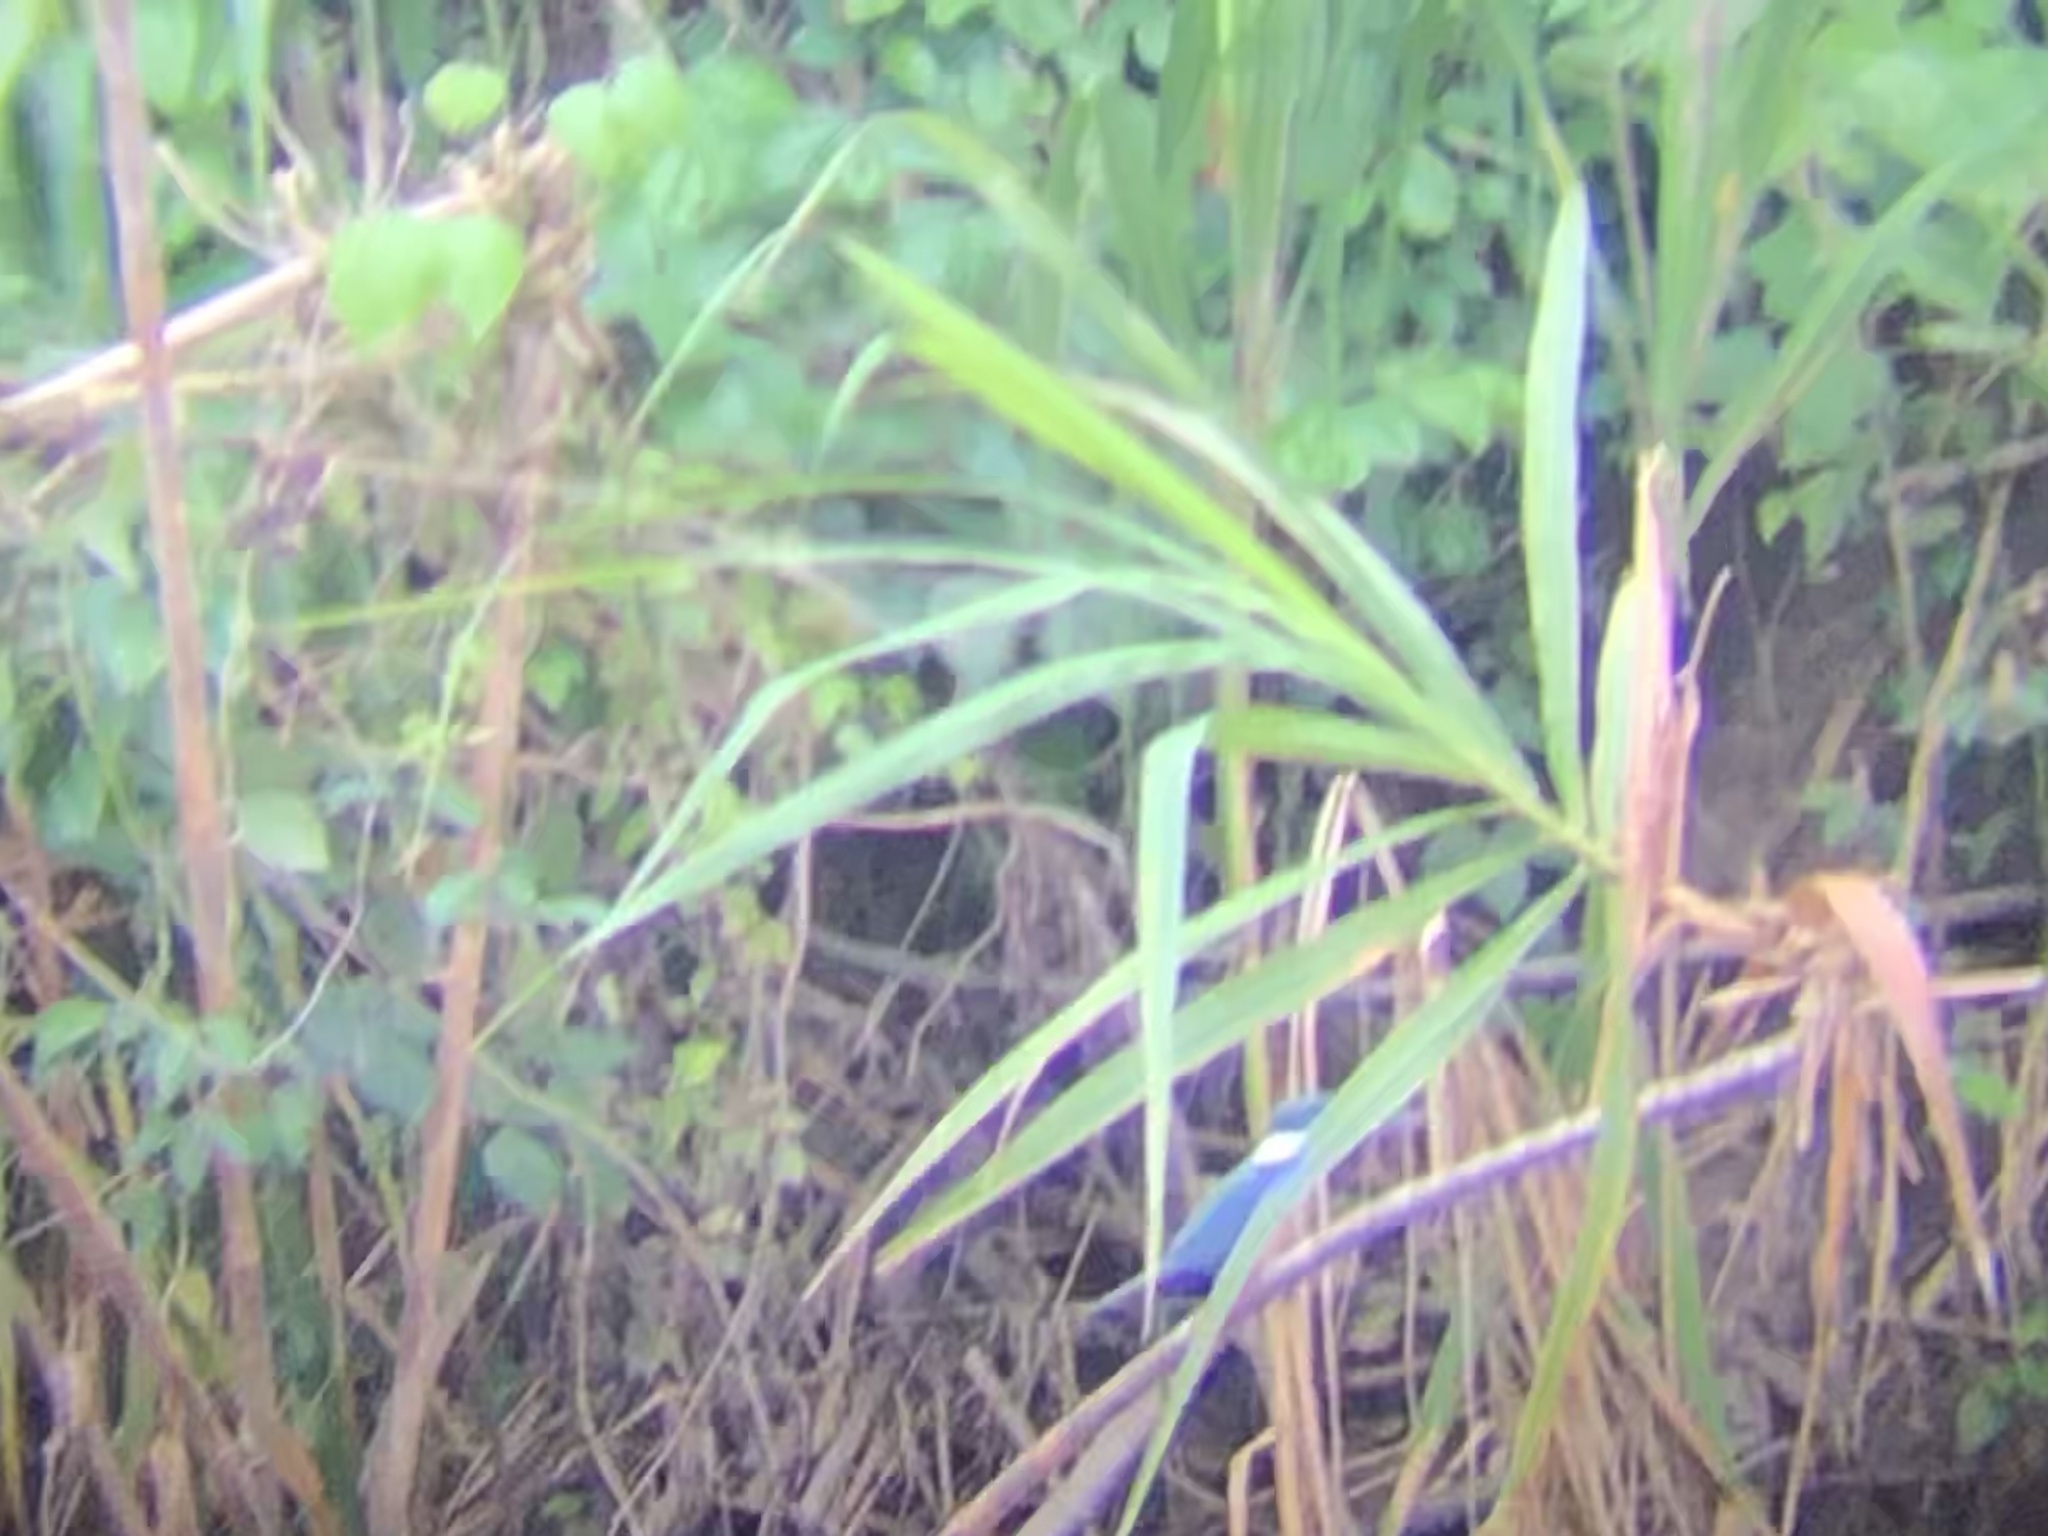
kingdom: Animalia
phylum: Chordata
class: Aves
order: Coraciiformes
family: Alcedinidae
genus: Megaceryle
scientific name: Megaceryle torquata
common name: Ringed kingfisher
